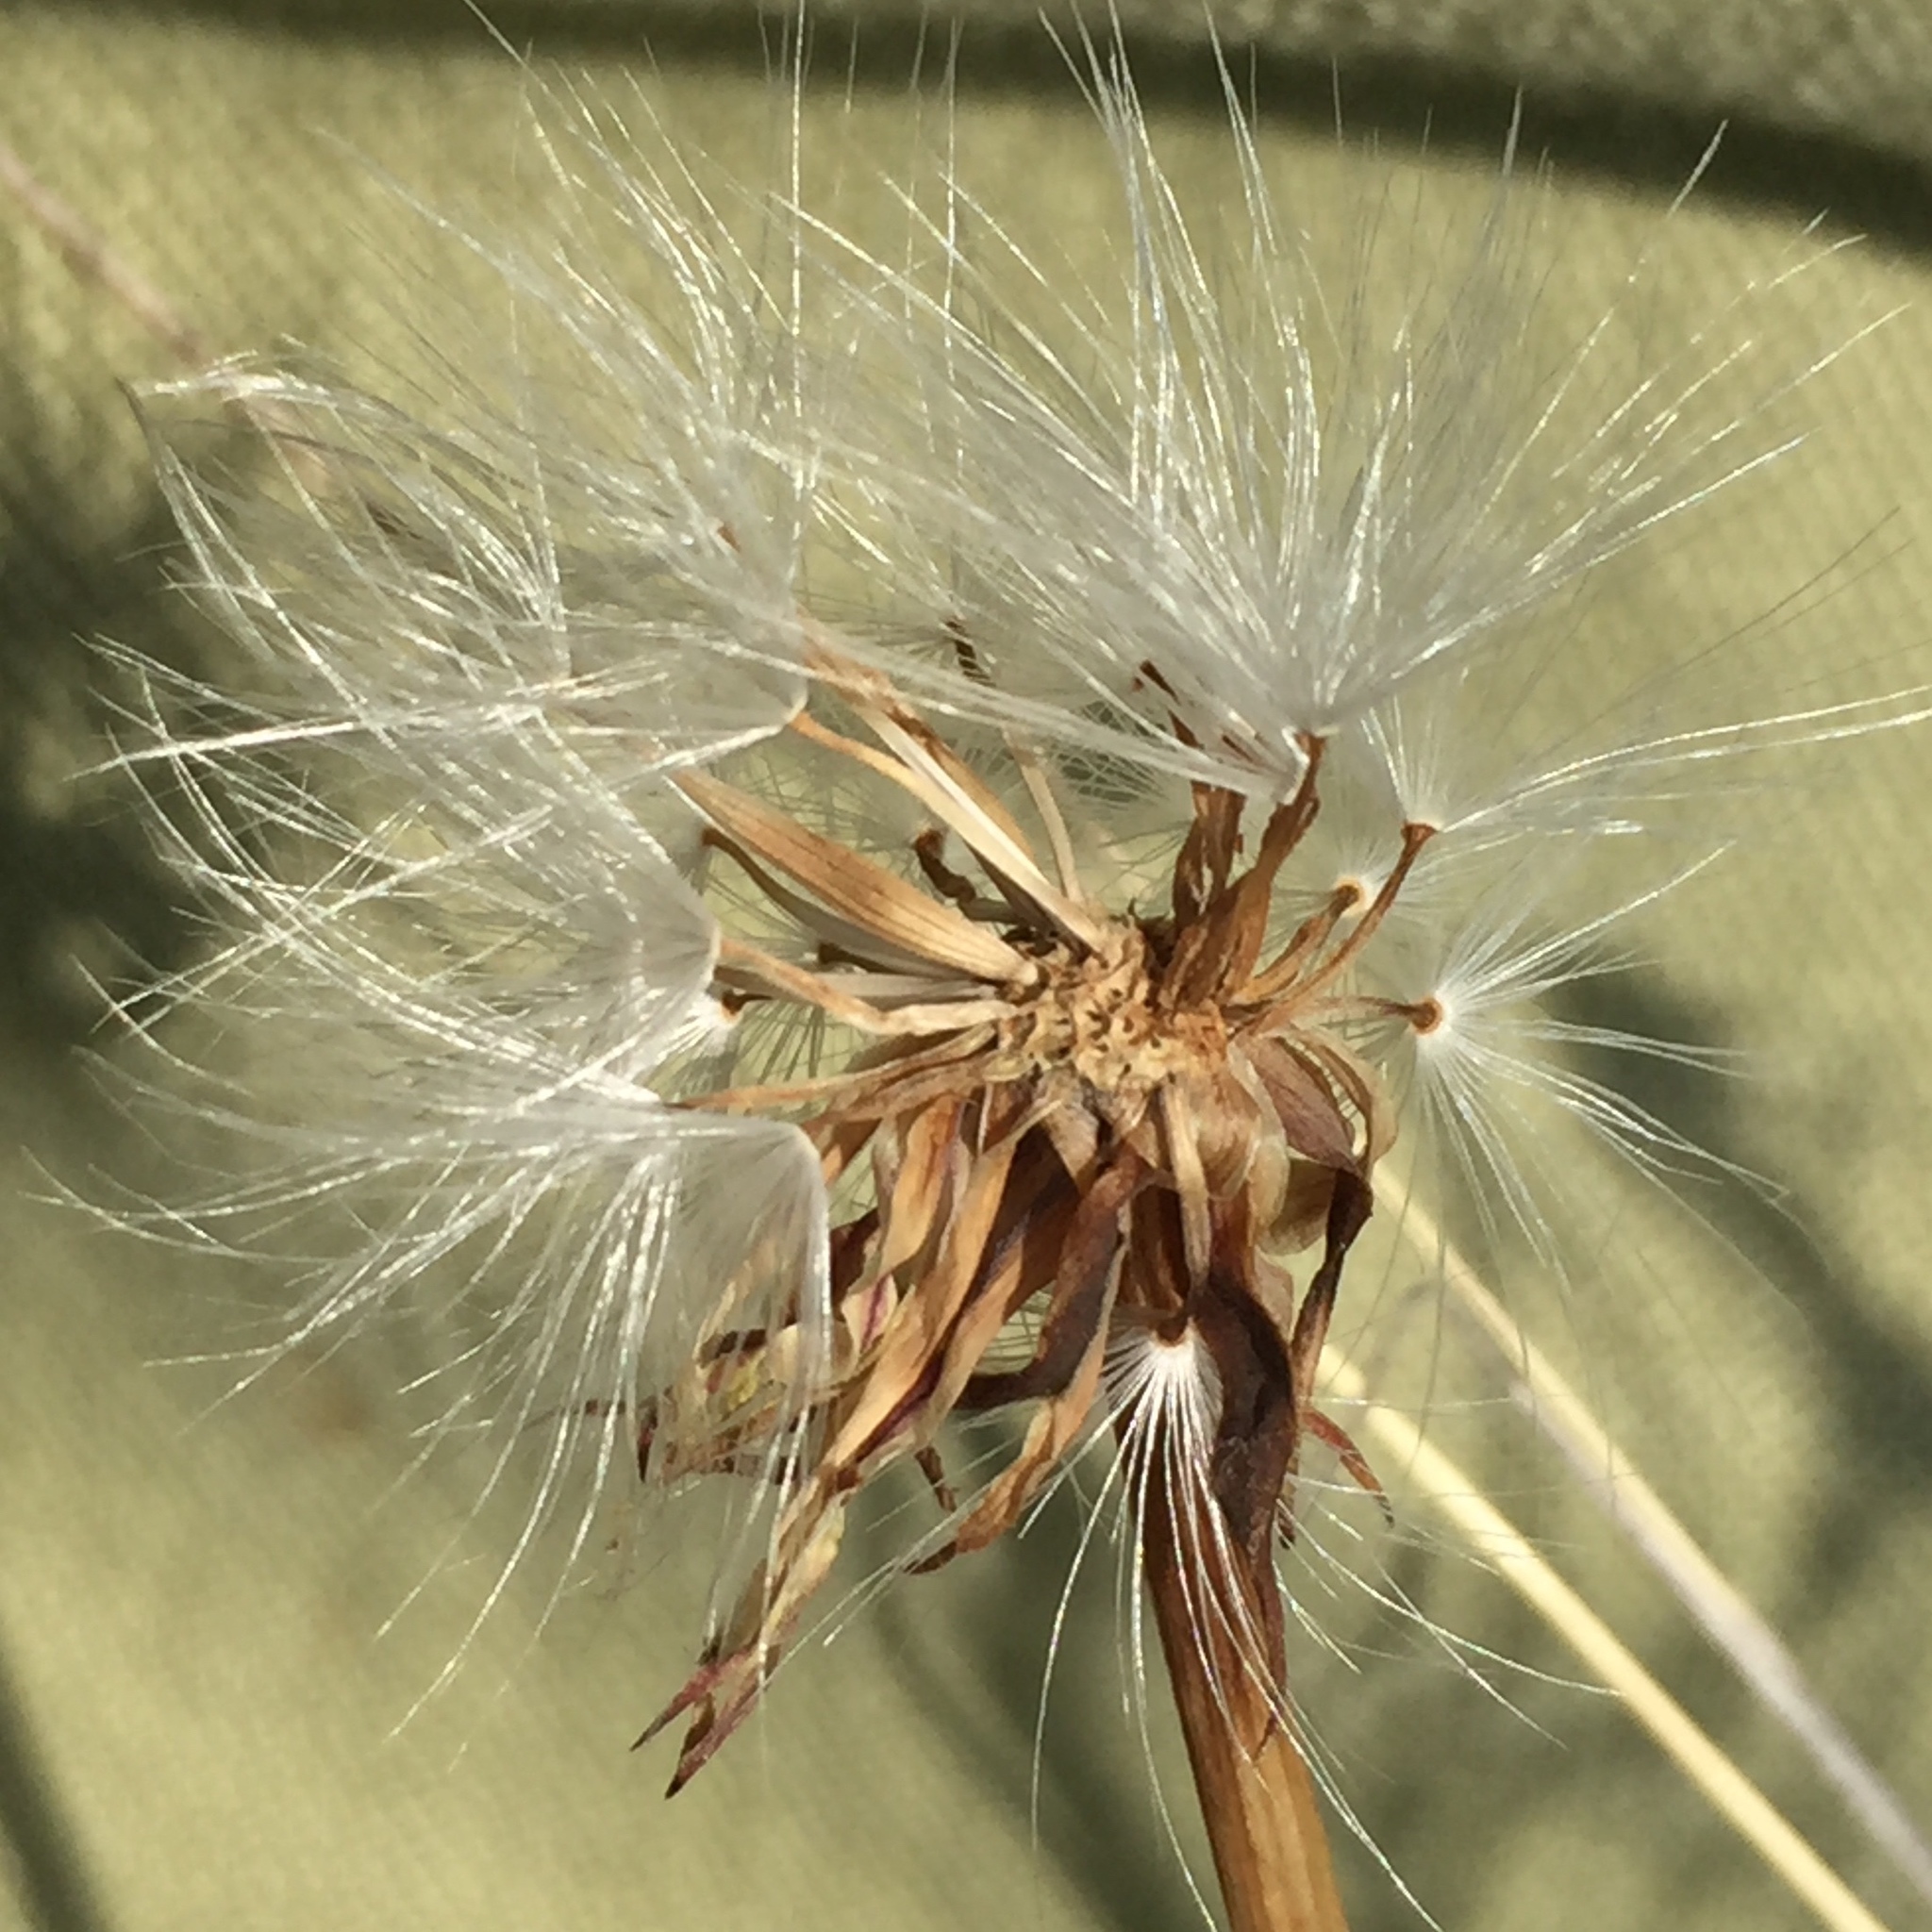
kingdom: Plantae
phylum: Tracheophyta
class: Magnoliopsida
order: Asterales
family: Asteraceae
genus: Agoseris
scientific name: Agoseris glauca
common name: Prairie agoseris
